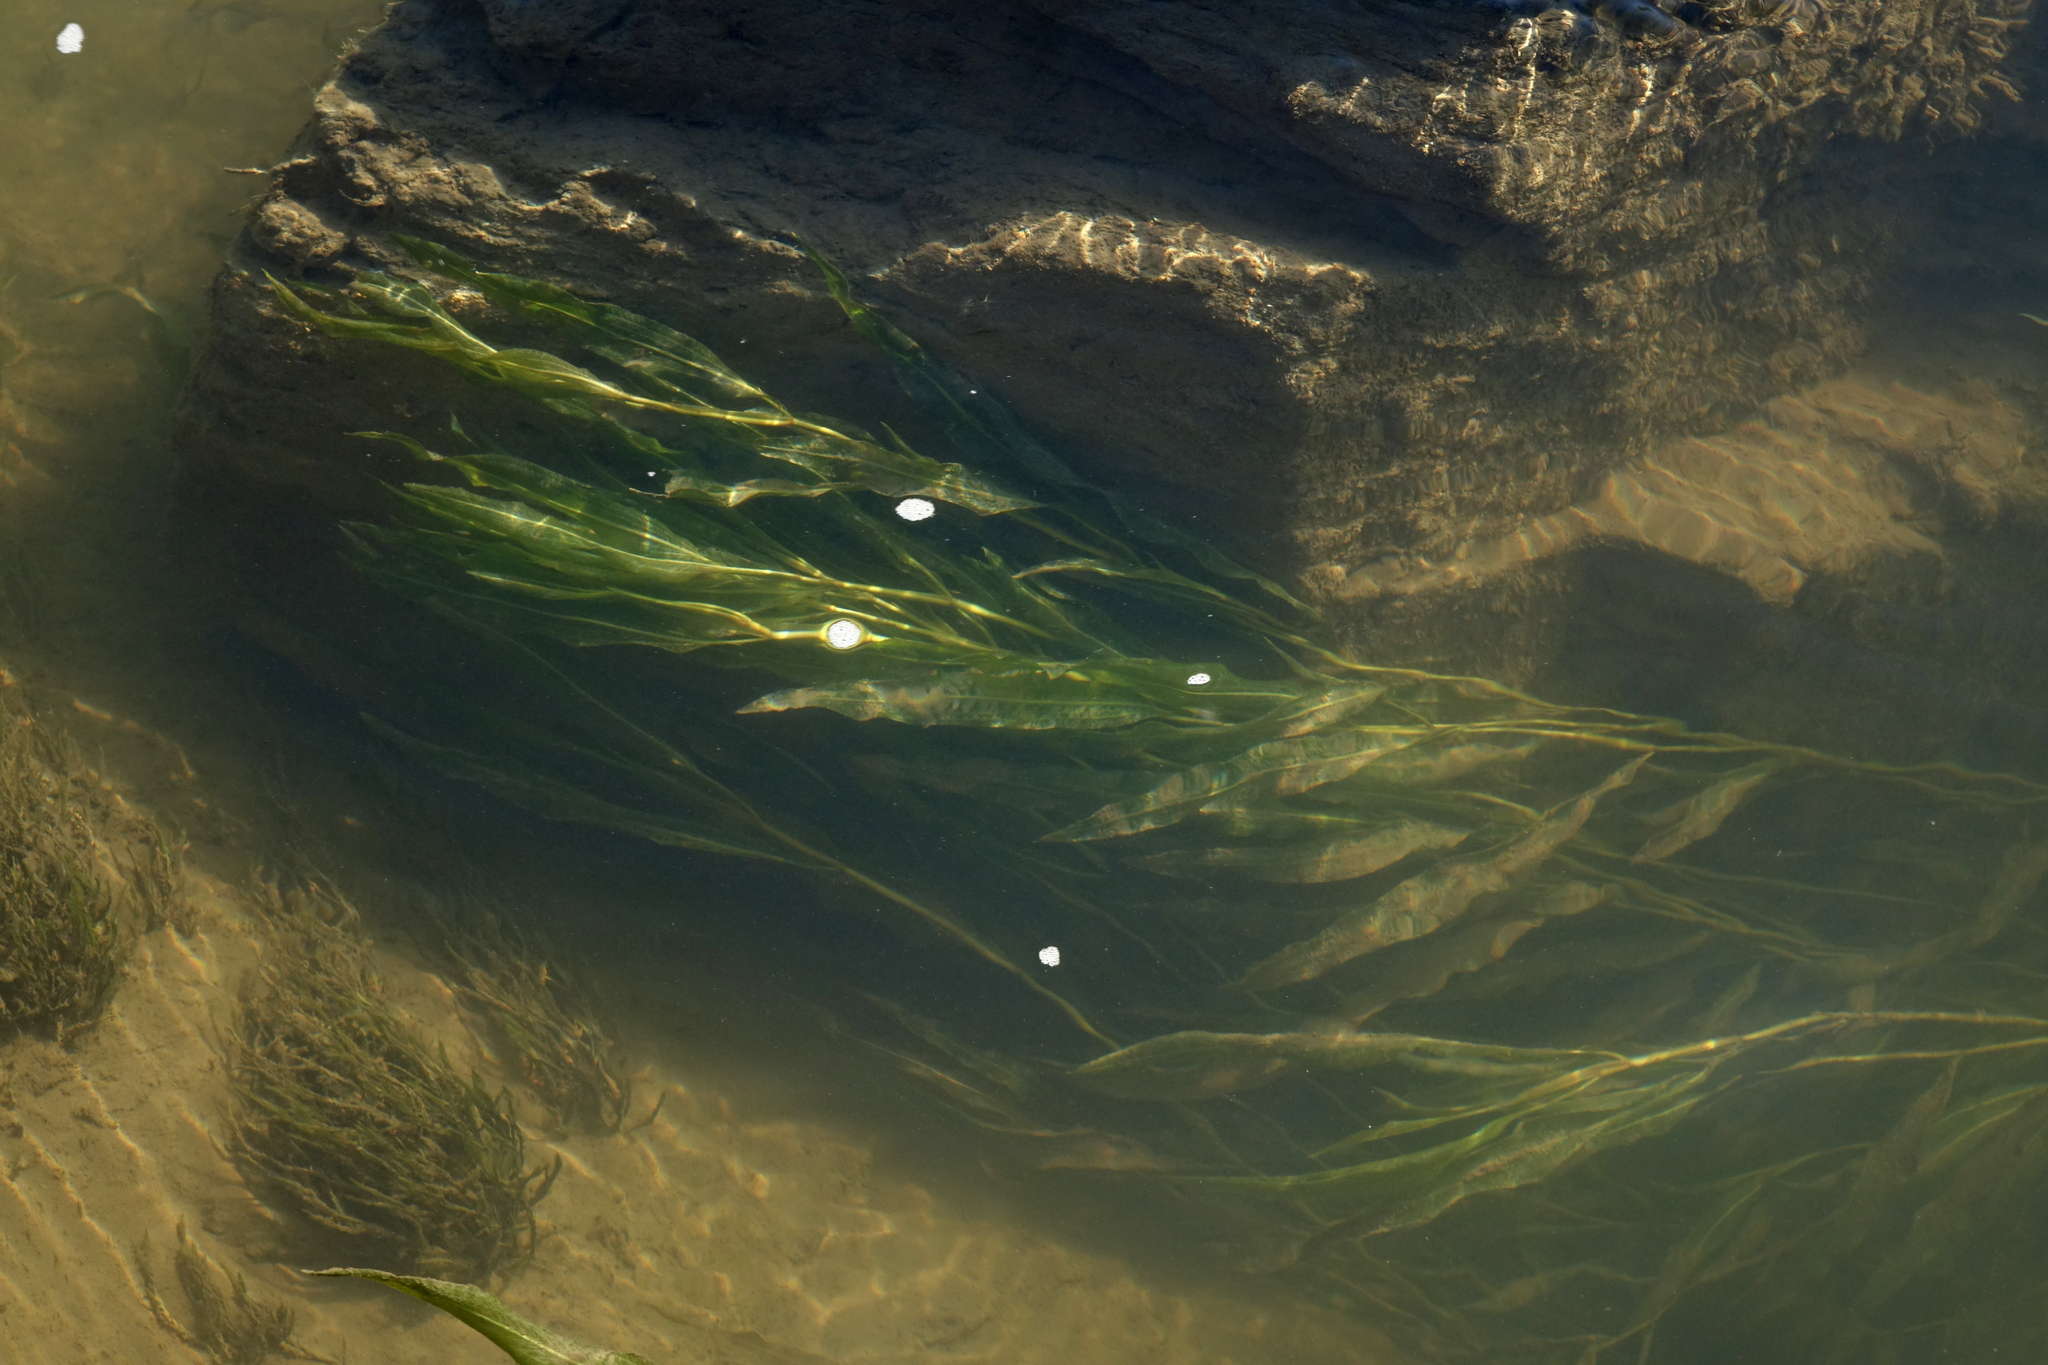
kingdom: Plantae
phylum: Tracheophyta
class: Liliopsida
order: Alismatales
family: Potamogetonaceae
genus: Potamogeton
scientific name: Potamogeton lucens
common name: Shining pondweed
